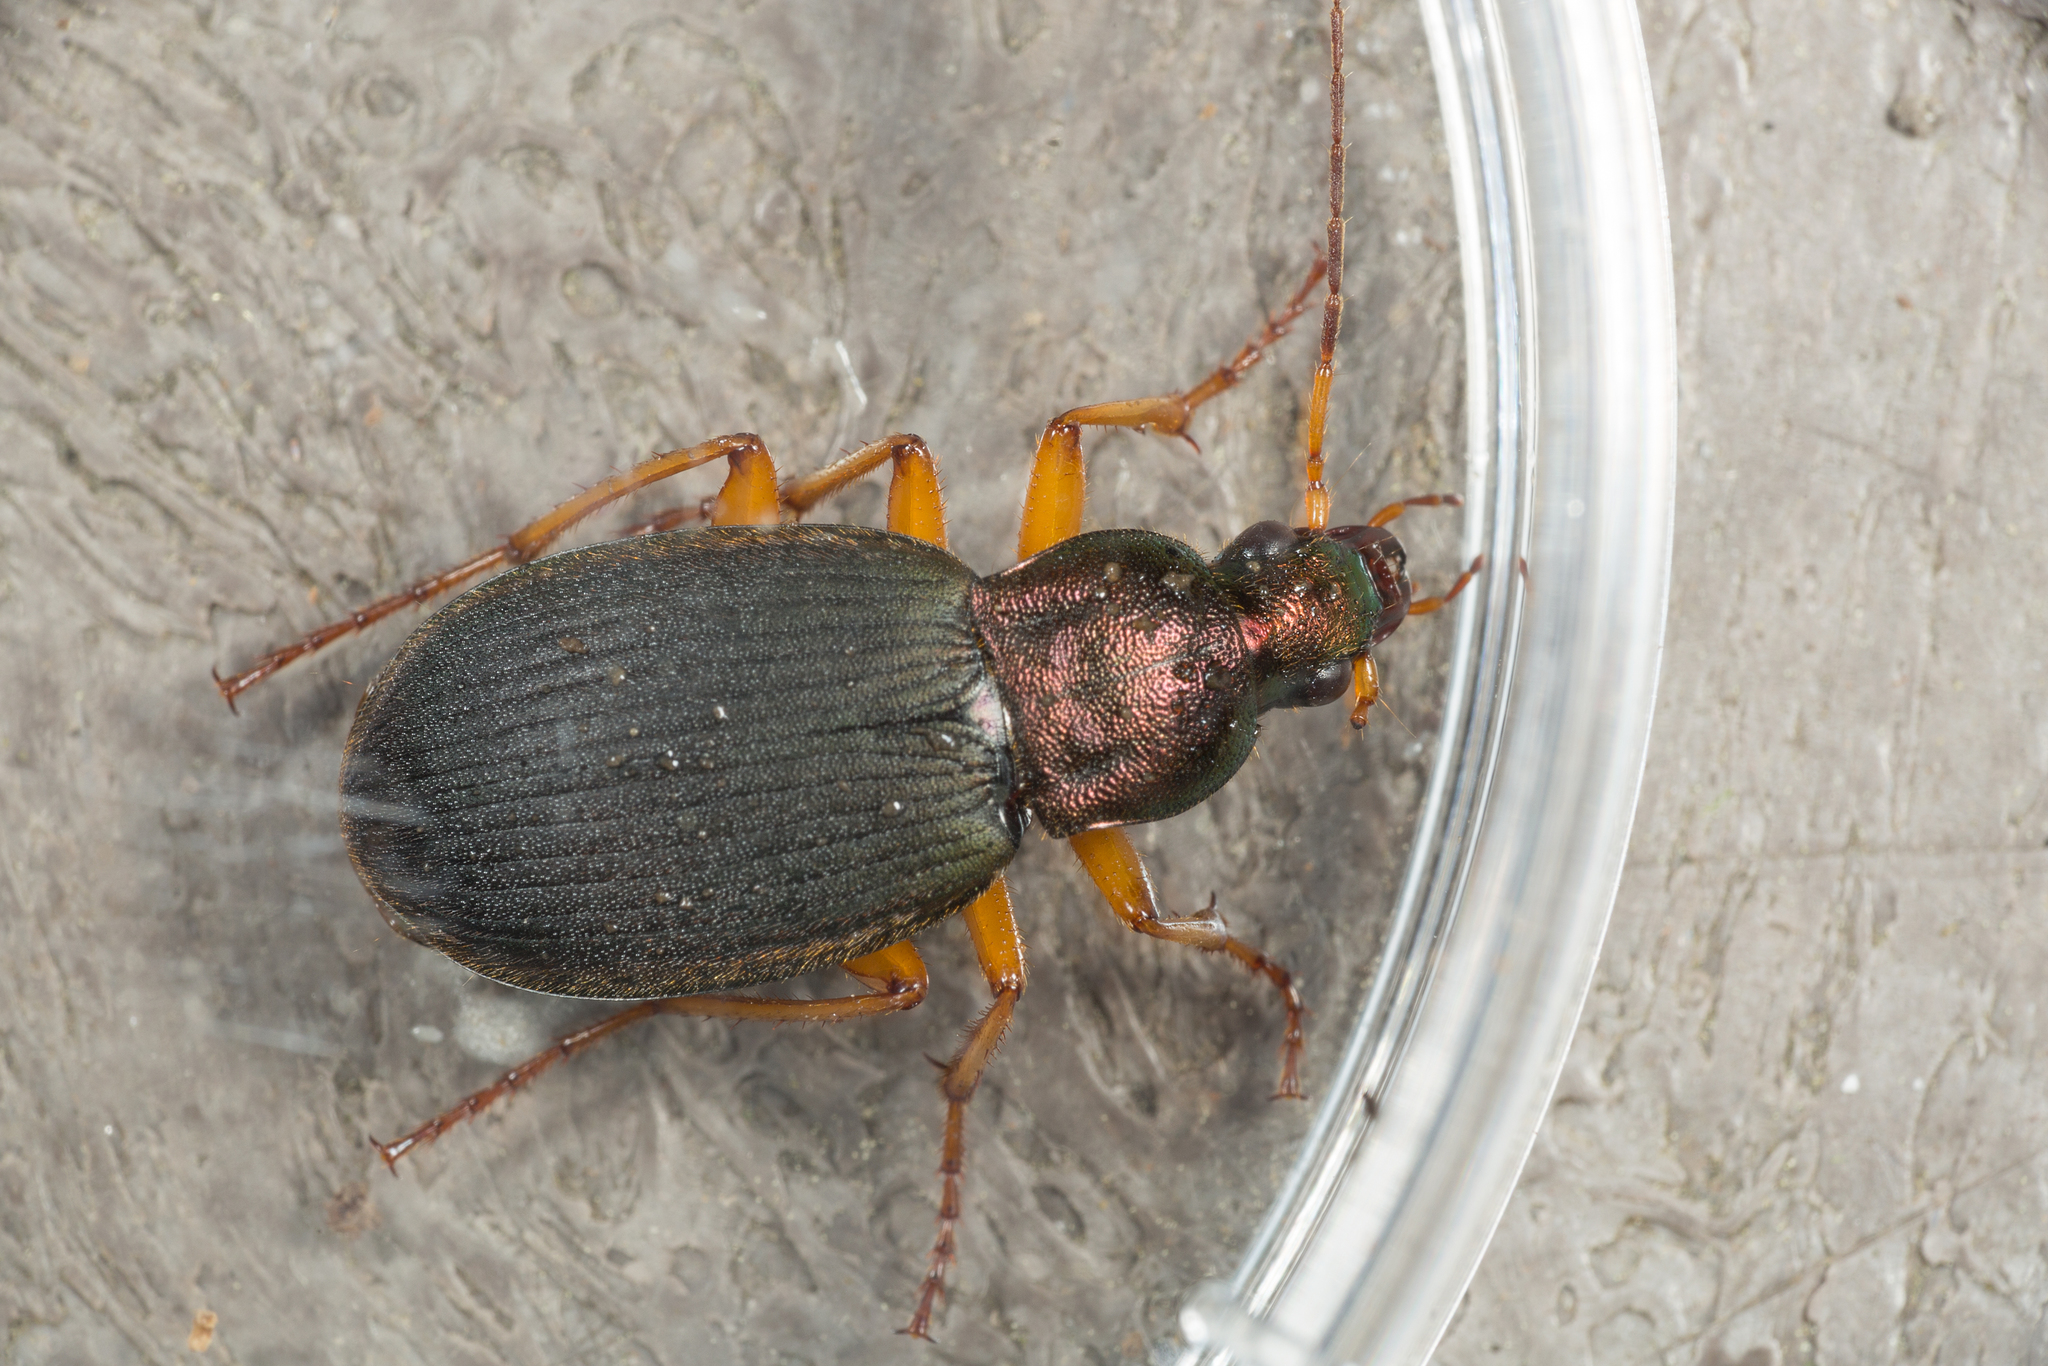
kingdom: Animalia
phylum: Arthropoda
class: Insecta
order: Coleoptera
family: Carabidae
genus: Chlaenius
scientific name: Chlaenius aestivus
